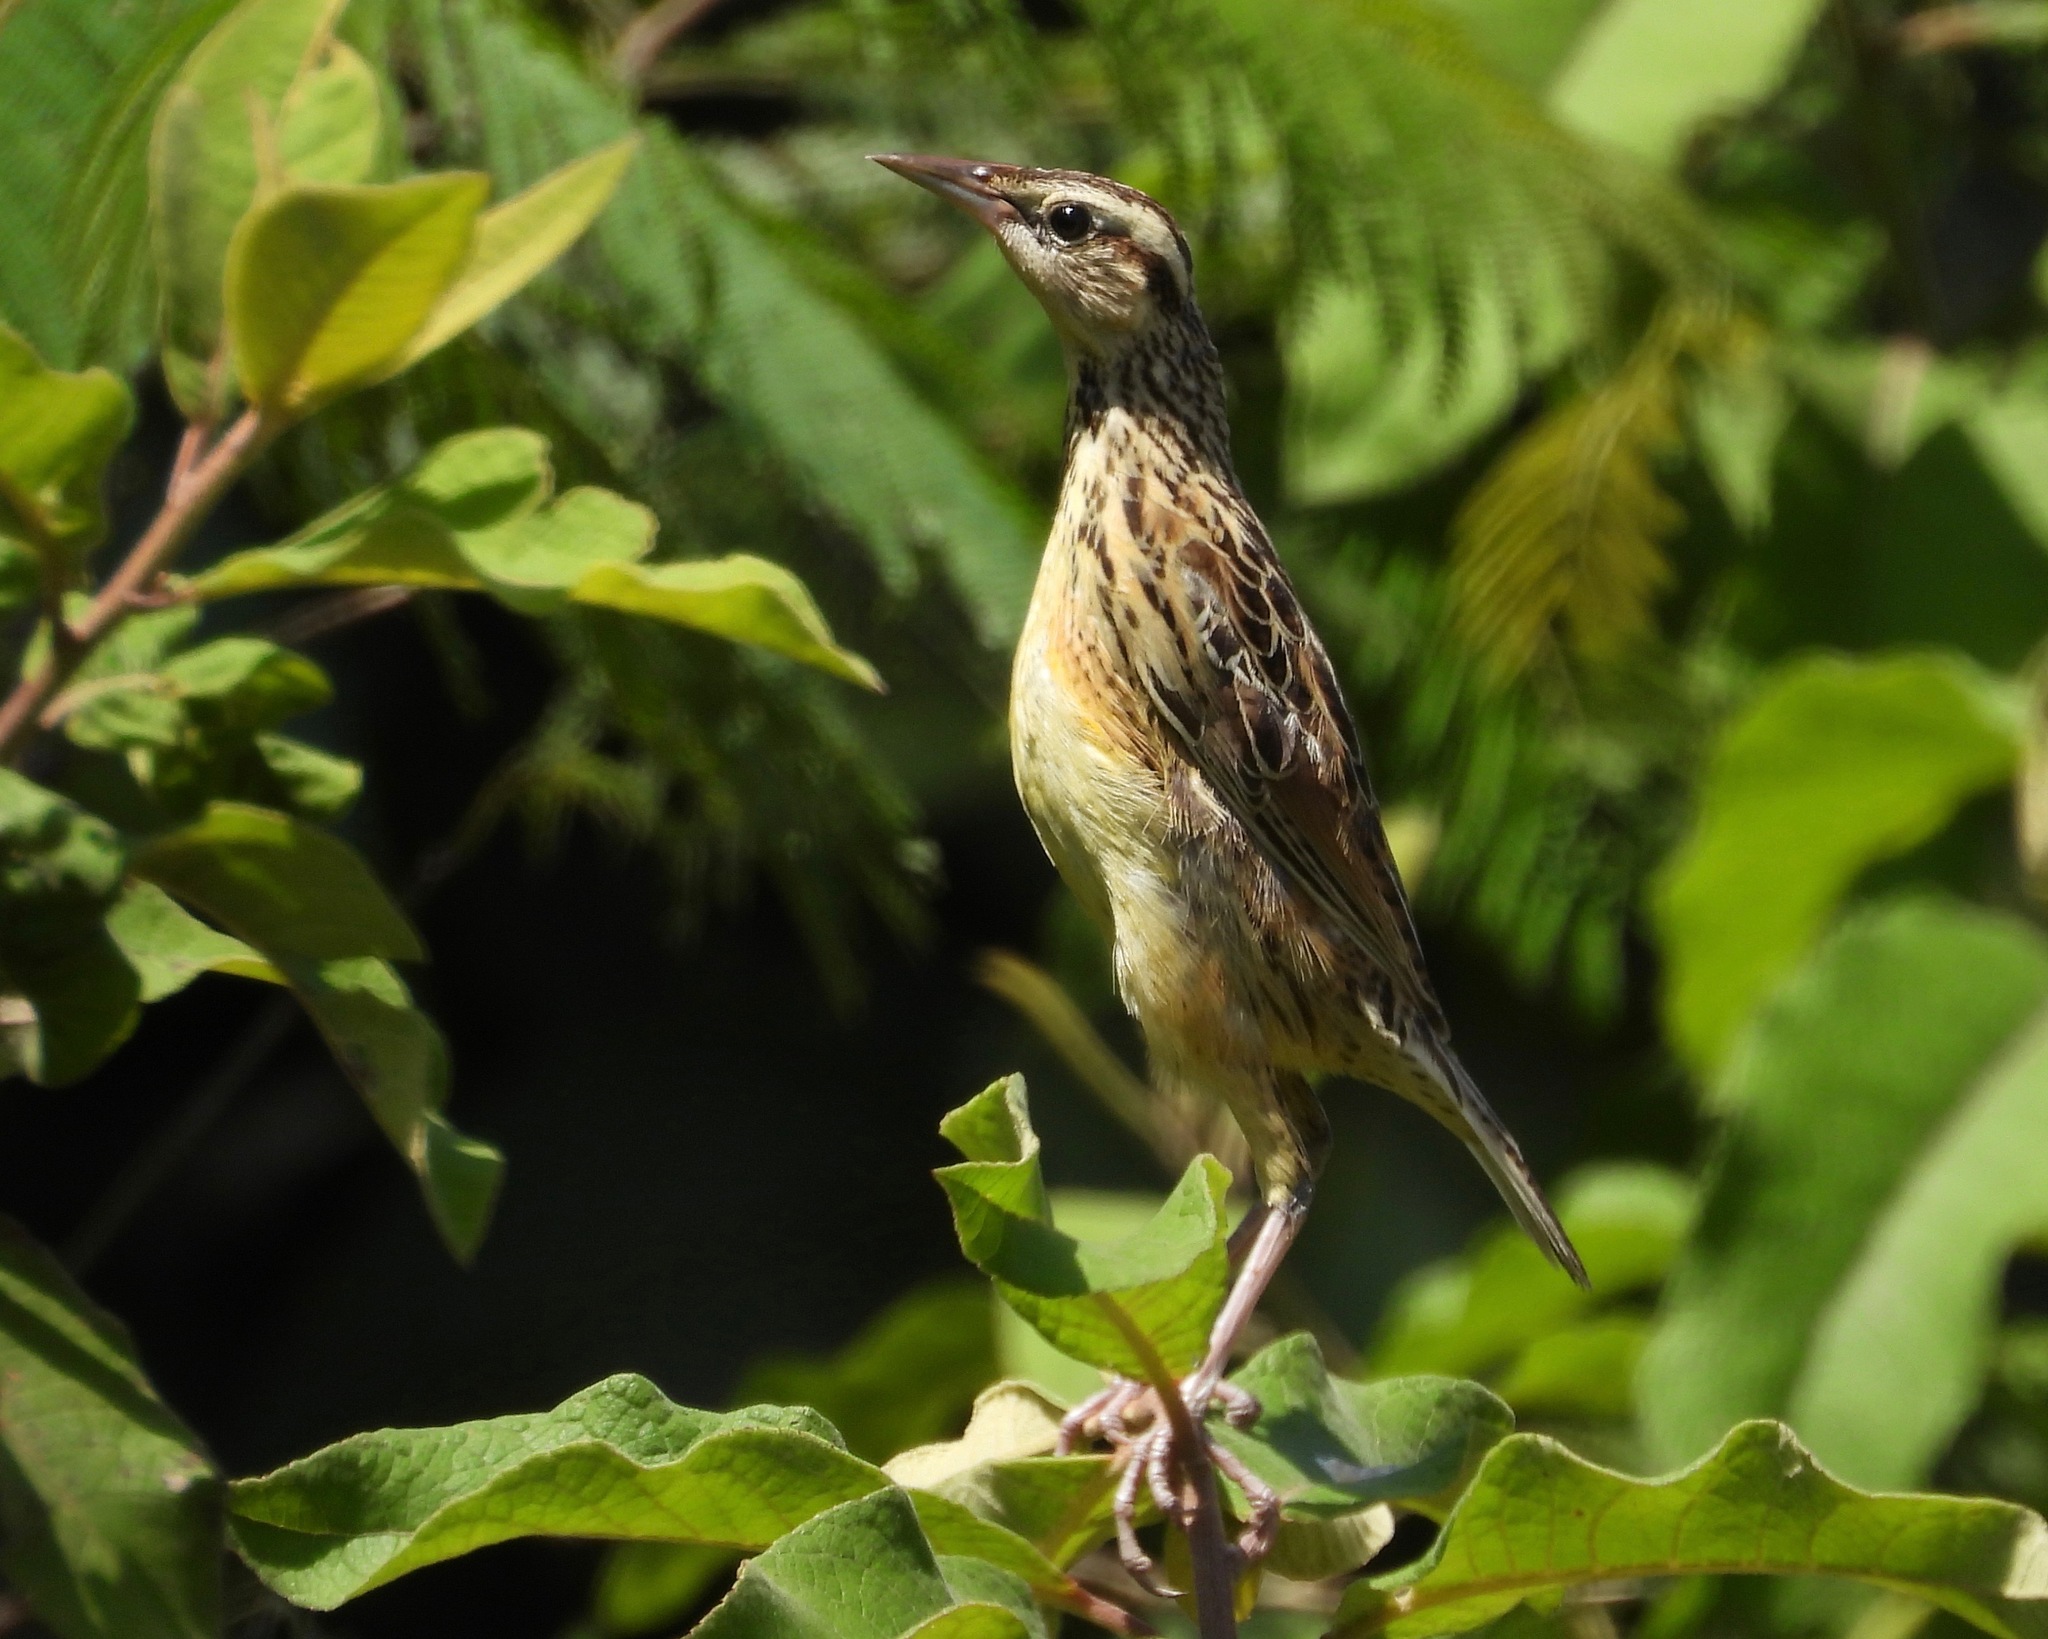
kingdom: Animalia
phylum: Chordata
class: Aves
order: Passeriformes
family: Icteridae
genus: Sturnella
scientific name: Sturnella magna
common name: Eastern meadowlark
